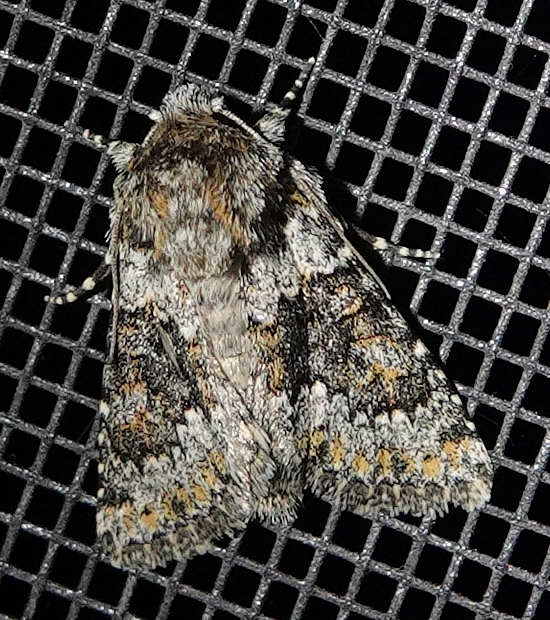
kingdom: Animalia
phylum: Arthropoda
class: Insecta
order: Lepidoptera
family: Noctuidae
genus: Hecatera
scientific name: Hecatera dysodea
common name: Small ranunculus
